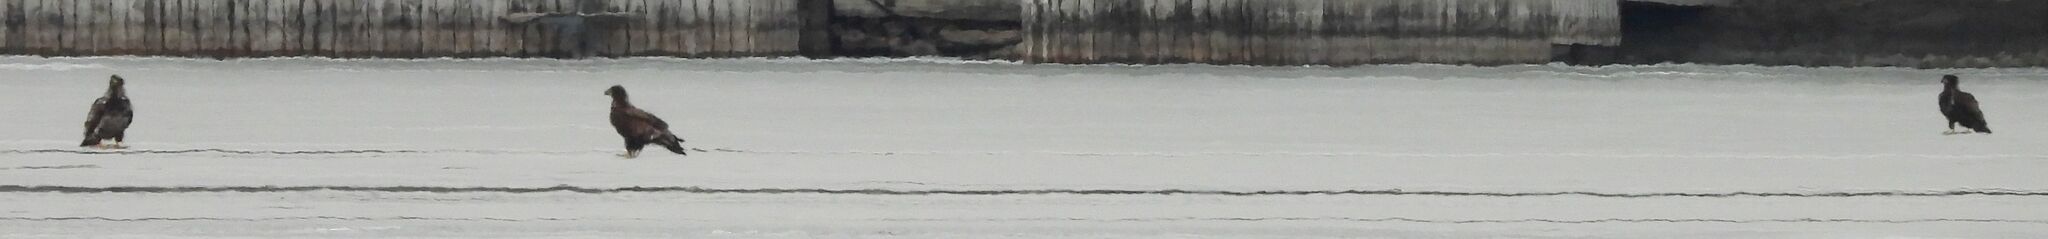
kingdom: Animalia
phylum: Chordata
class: Aves
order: Accipitriformes
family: Accipitridae
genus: Haliaeetus
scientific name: Haliaeetus leucocephalus
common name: Bald eagle
